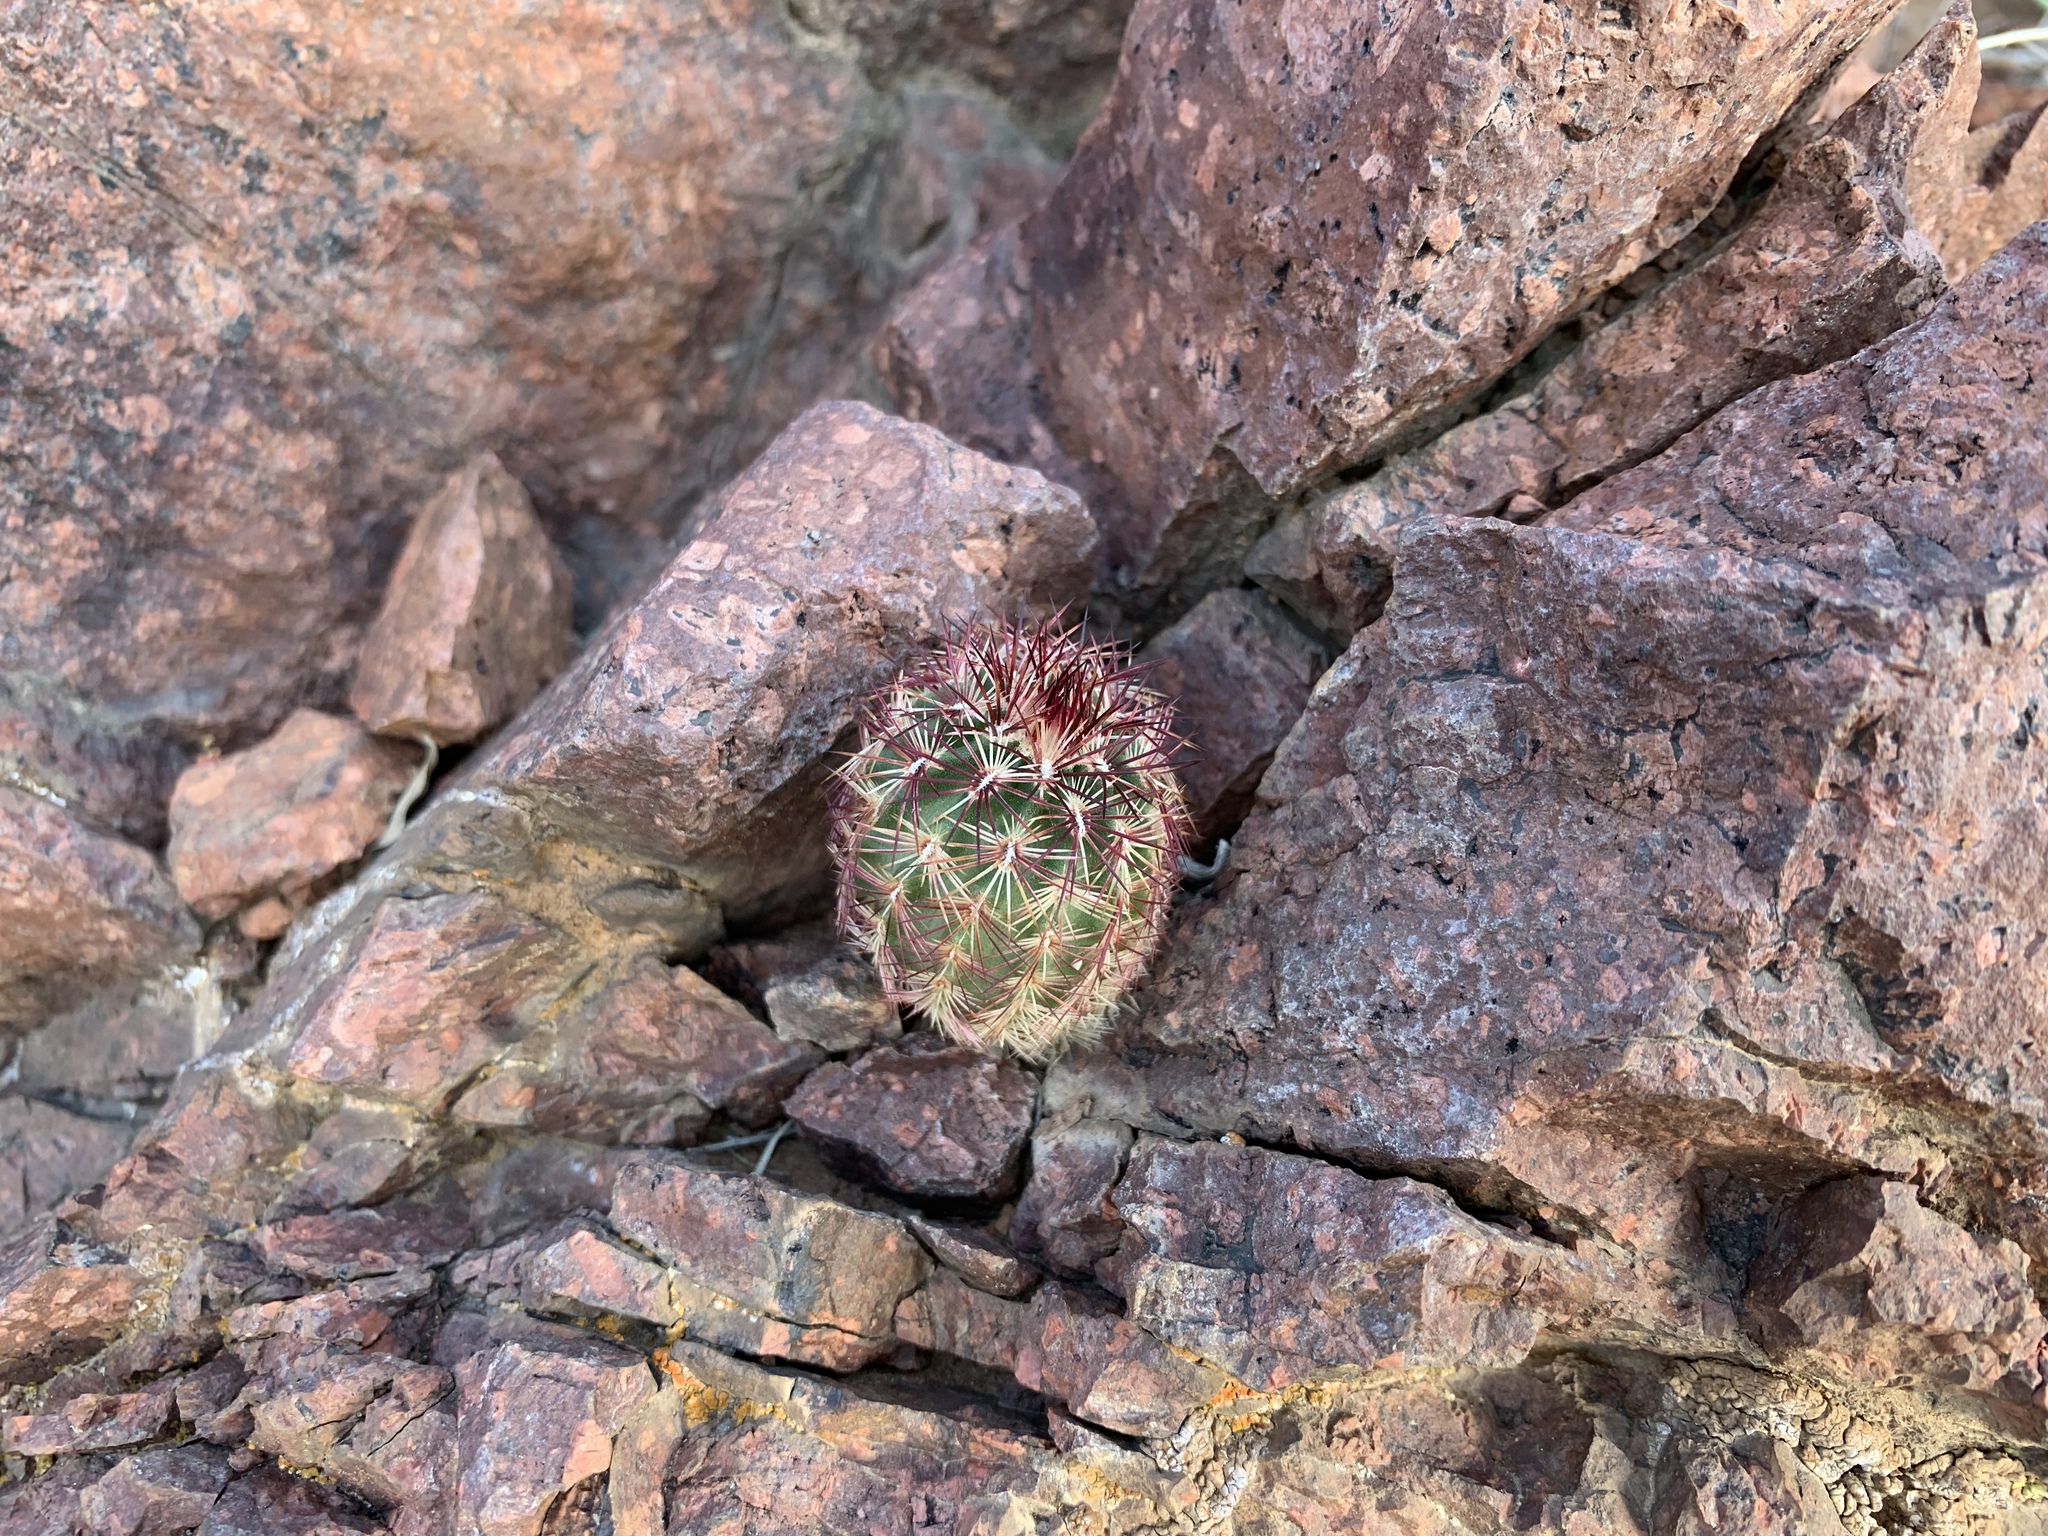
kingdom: Plantae
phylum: Tracheophyta
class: Magnoliopsida
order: Caryophyllales
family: Cactaceae
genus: Echinocereus
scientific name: Echinocereus viridiflorus
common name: Nylon hedgehog cactus
